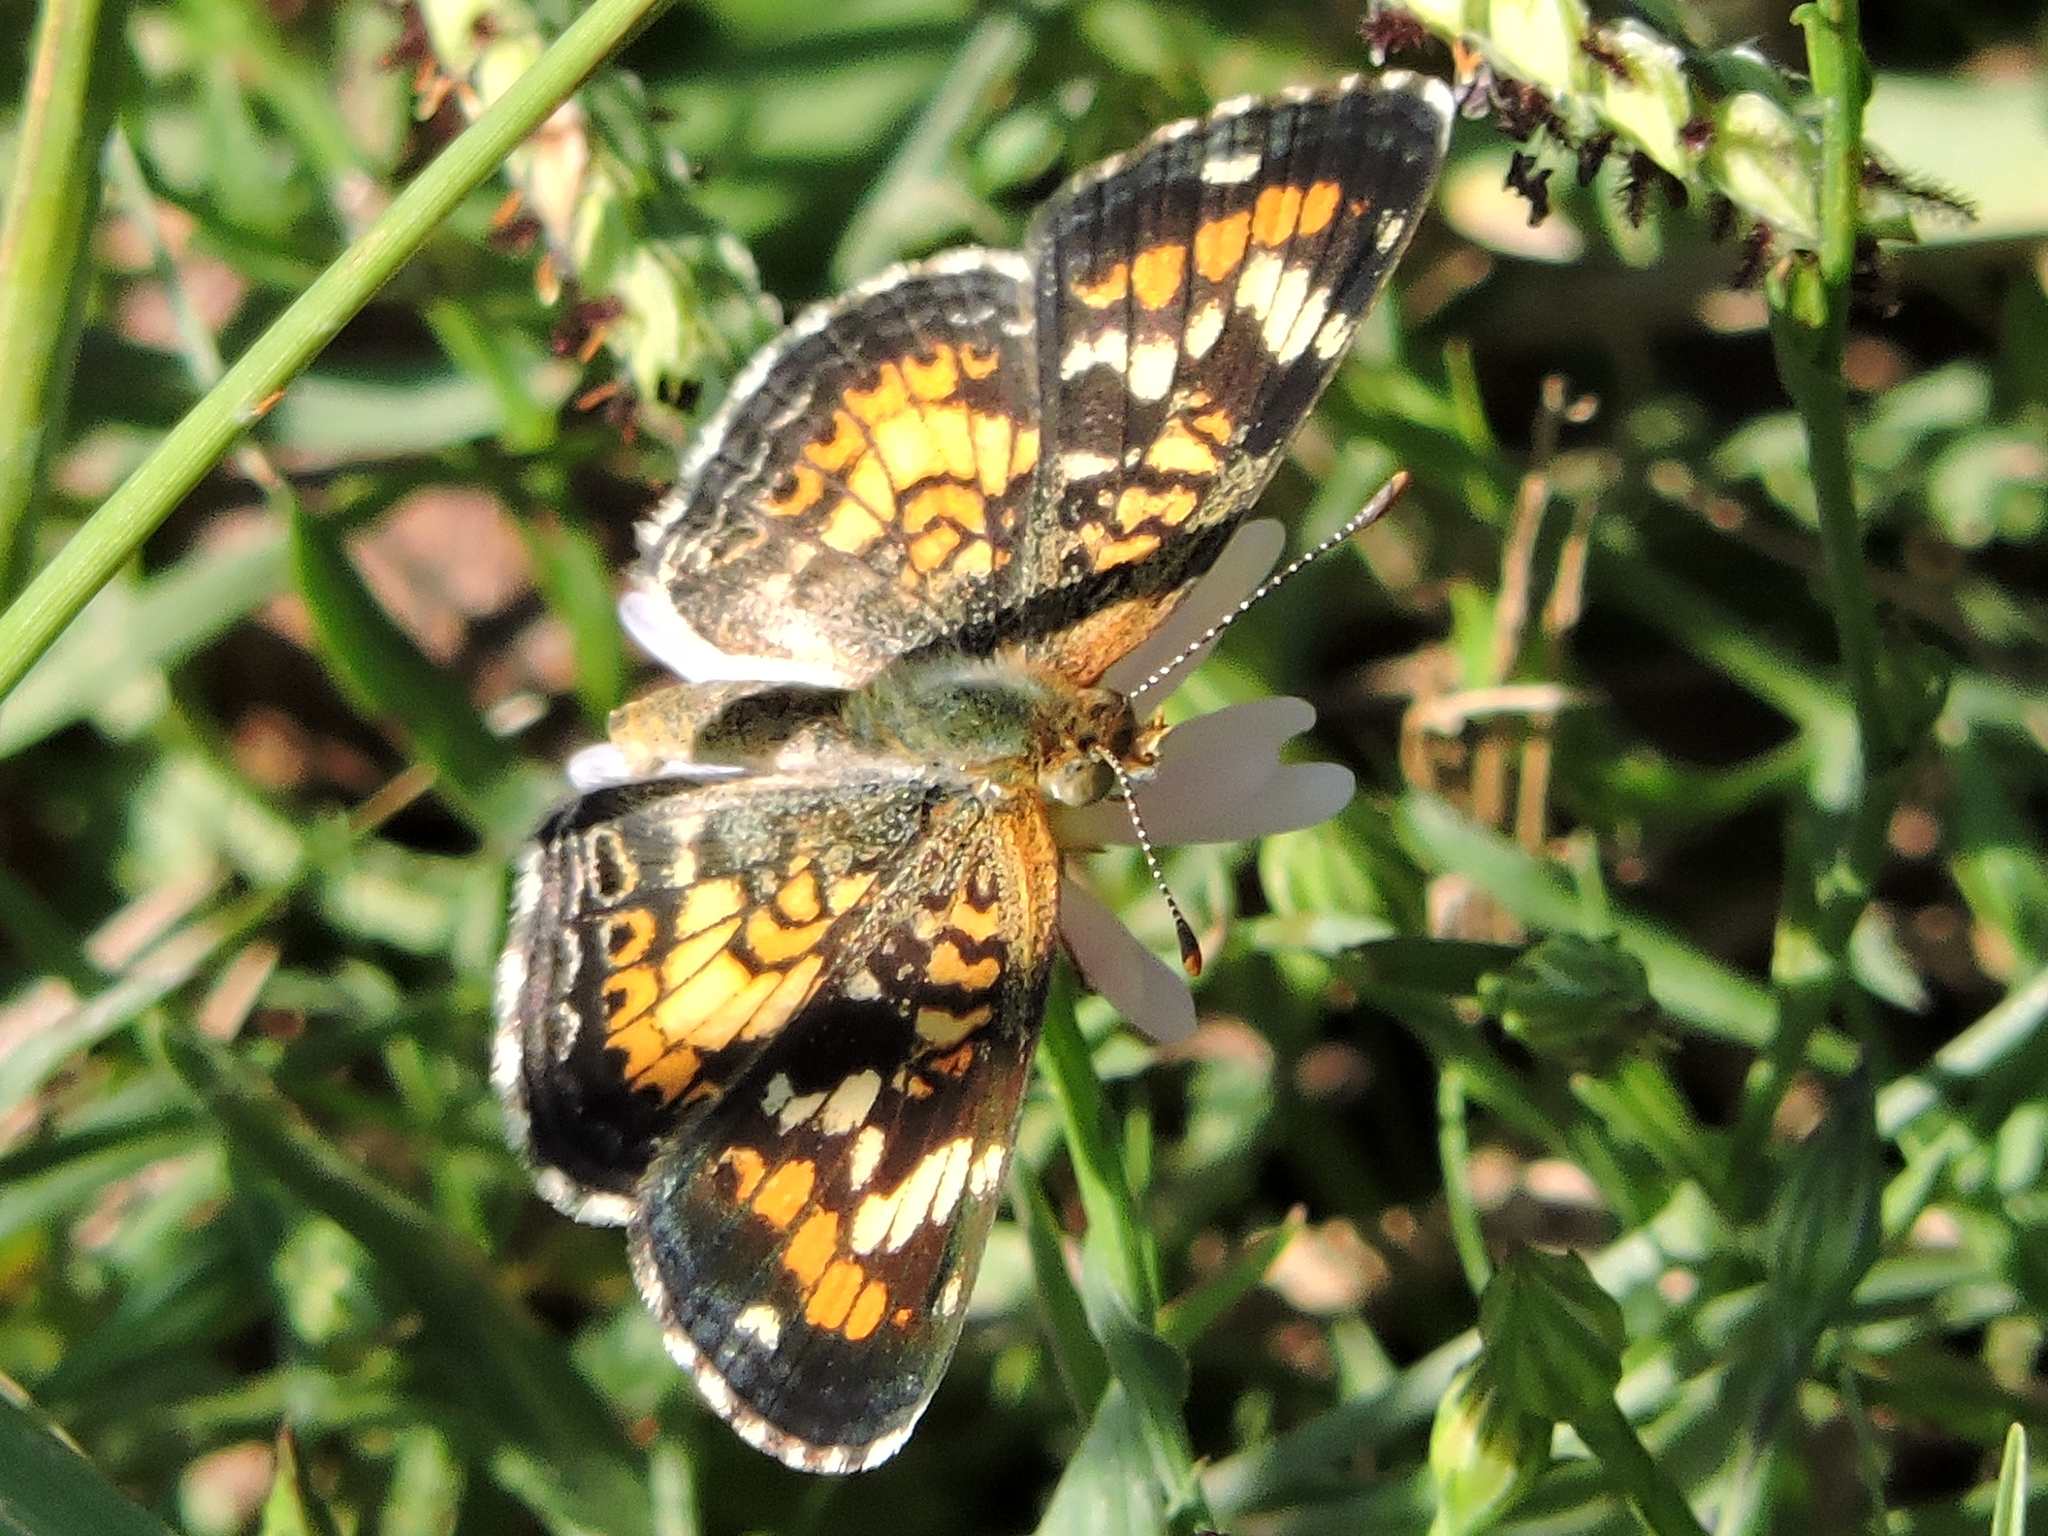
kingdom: Animalia
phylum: Arthropoda
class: Insecta
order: Lepidoptera
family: Nymphalidae
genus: Phyciodes
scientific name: Phyciodes phaon
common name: Phaon crescent
